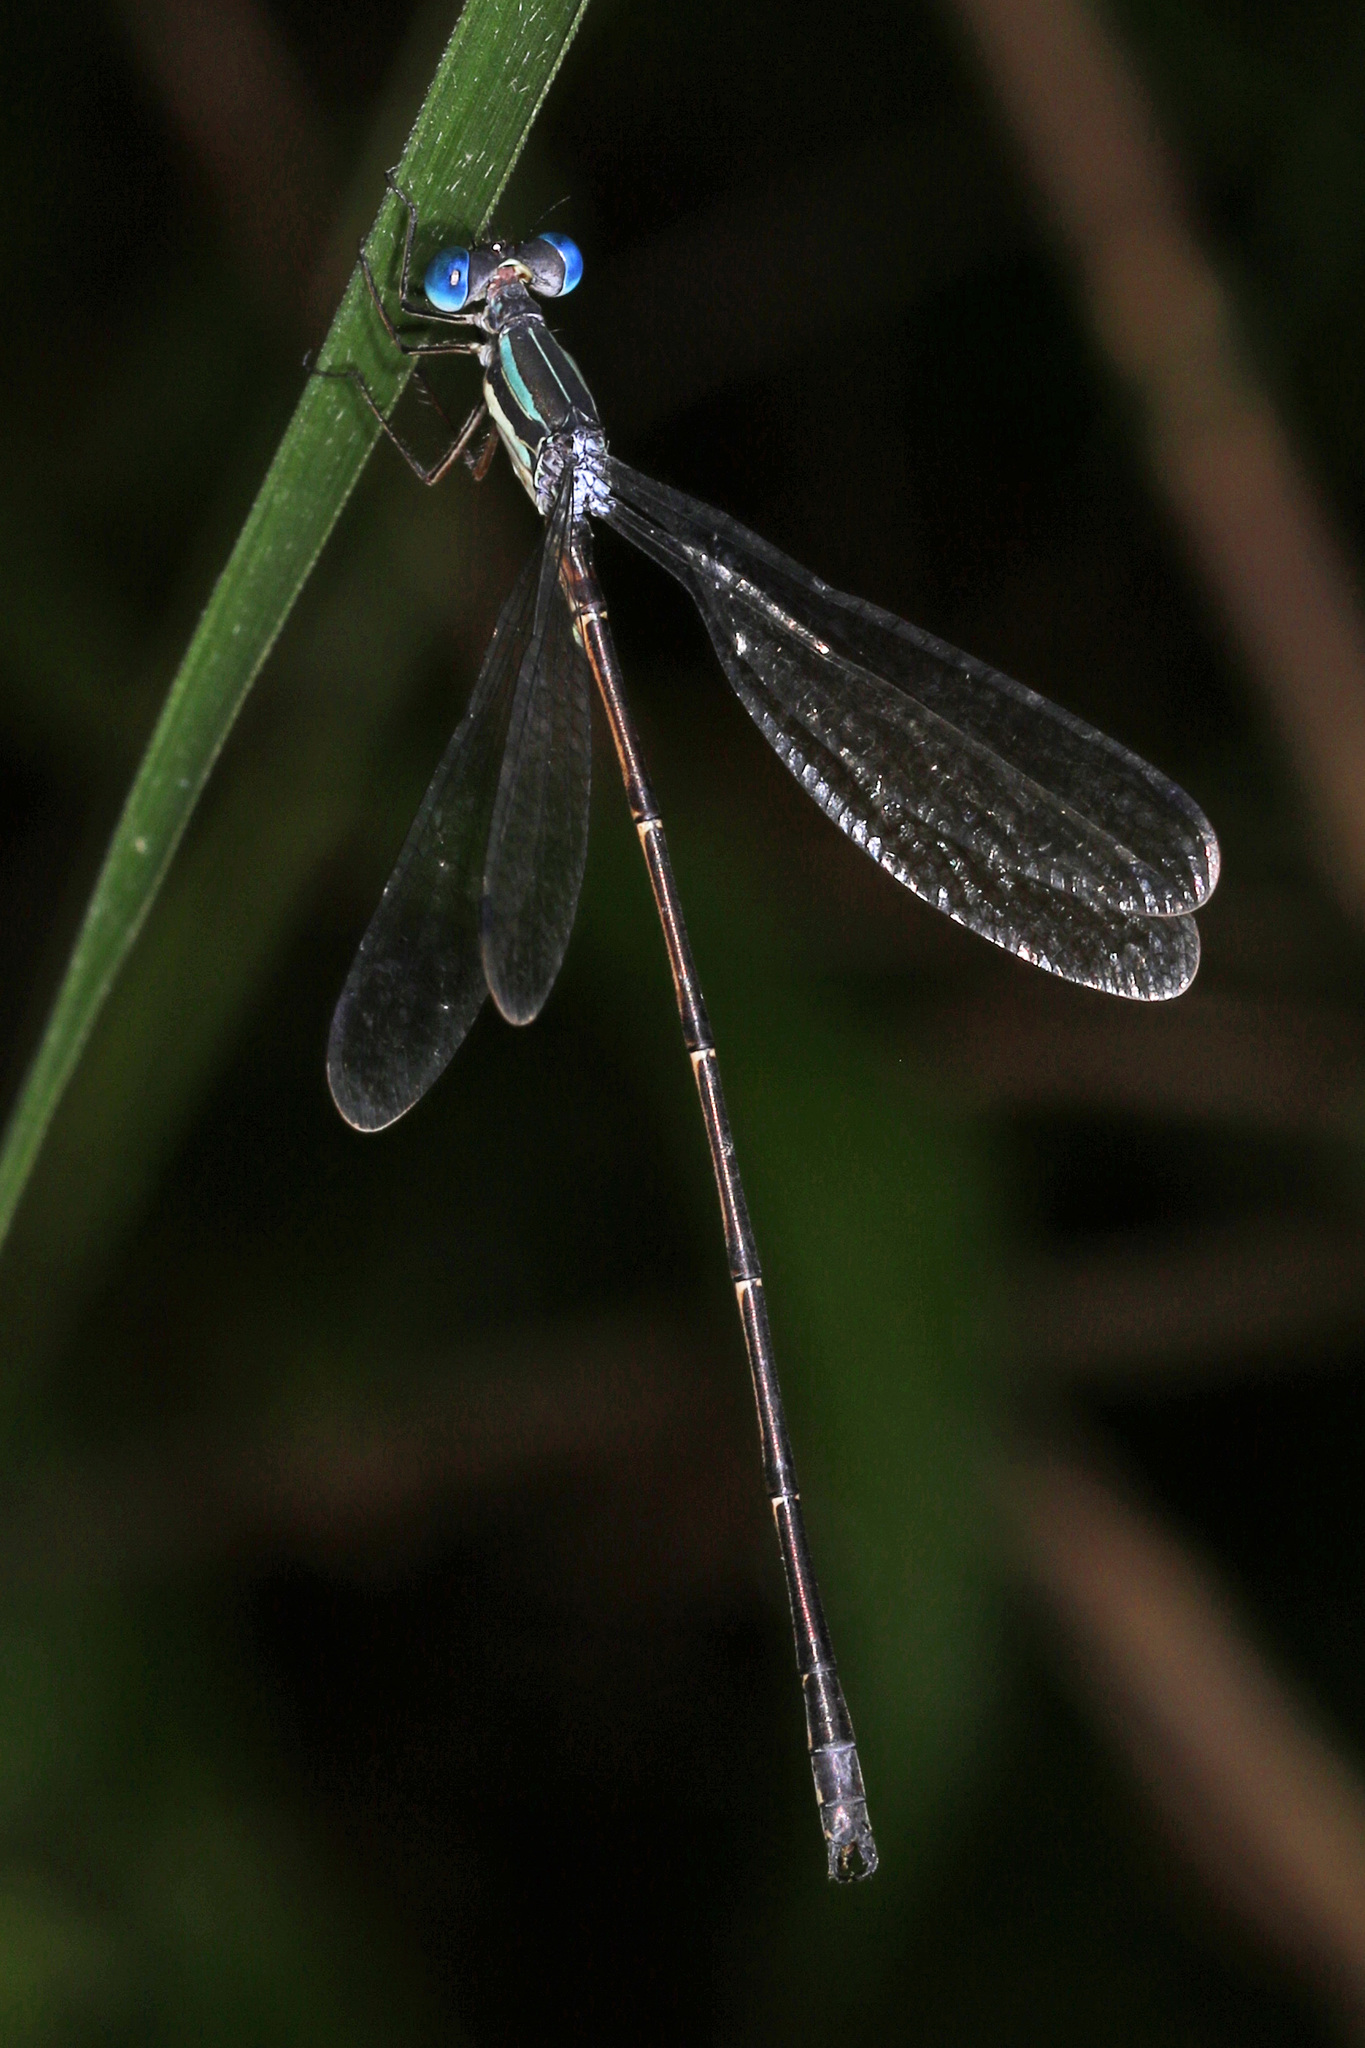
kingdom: Animalia
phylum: Arthropoda
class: Insecta
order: Odonata
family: Lestidae
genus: Lestes
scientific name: Lestes rectangularis
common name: Slender spreadwing
